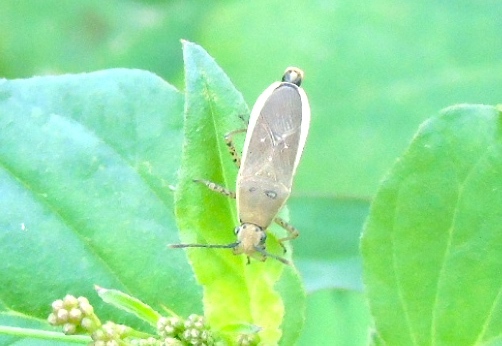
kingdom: Animalia
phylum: Arthropoda
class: Insecta
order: Hemiptera
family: Coreidae
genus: Catorhintha
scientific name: Catorhintha selector
